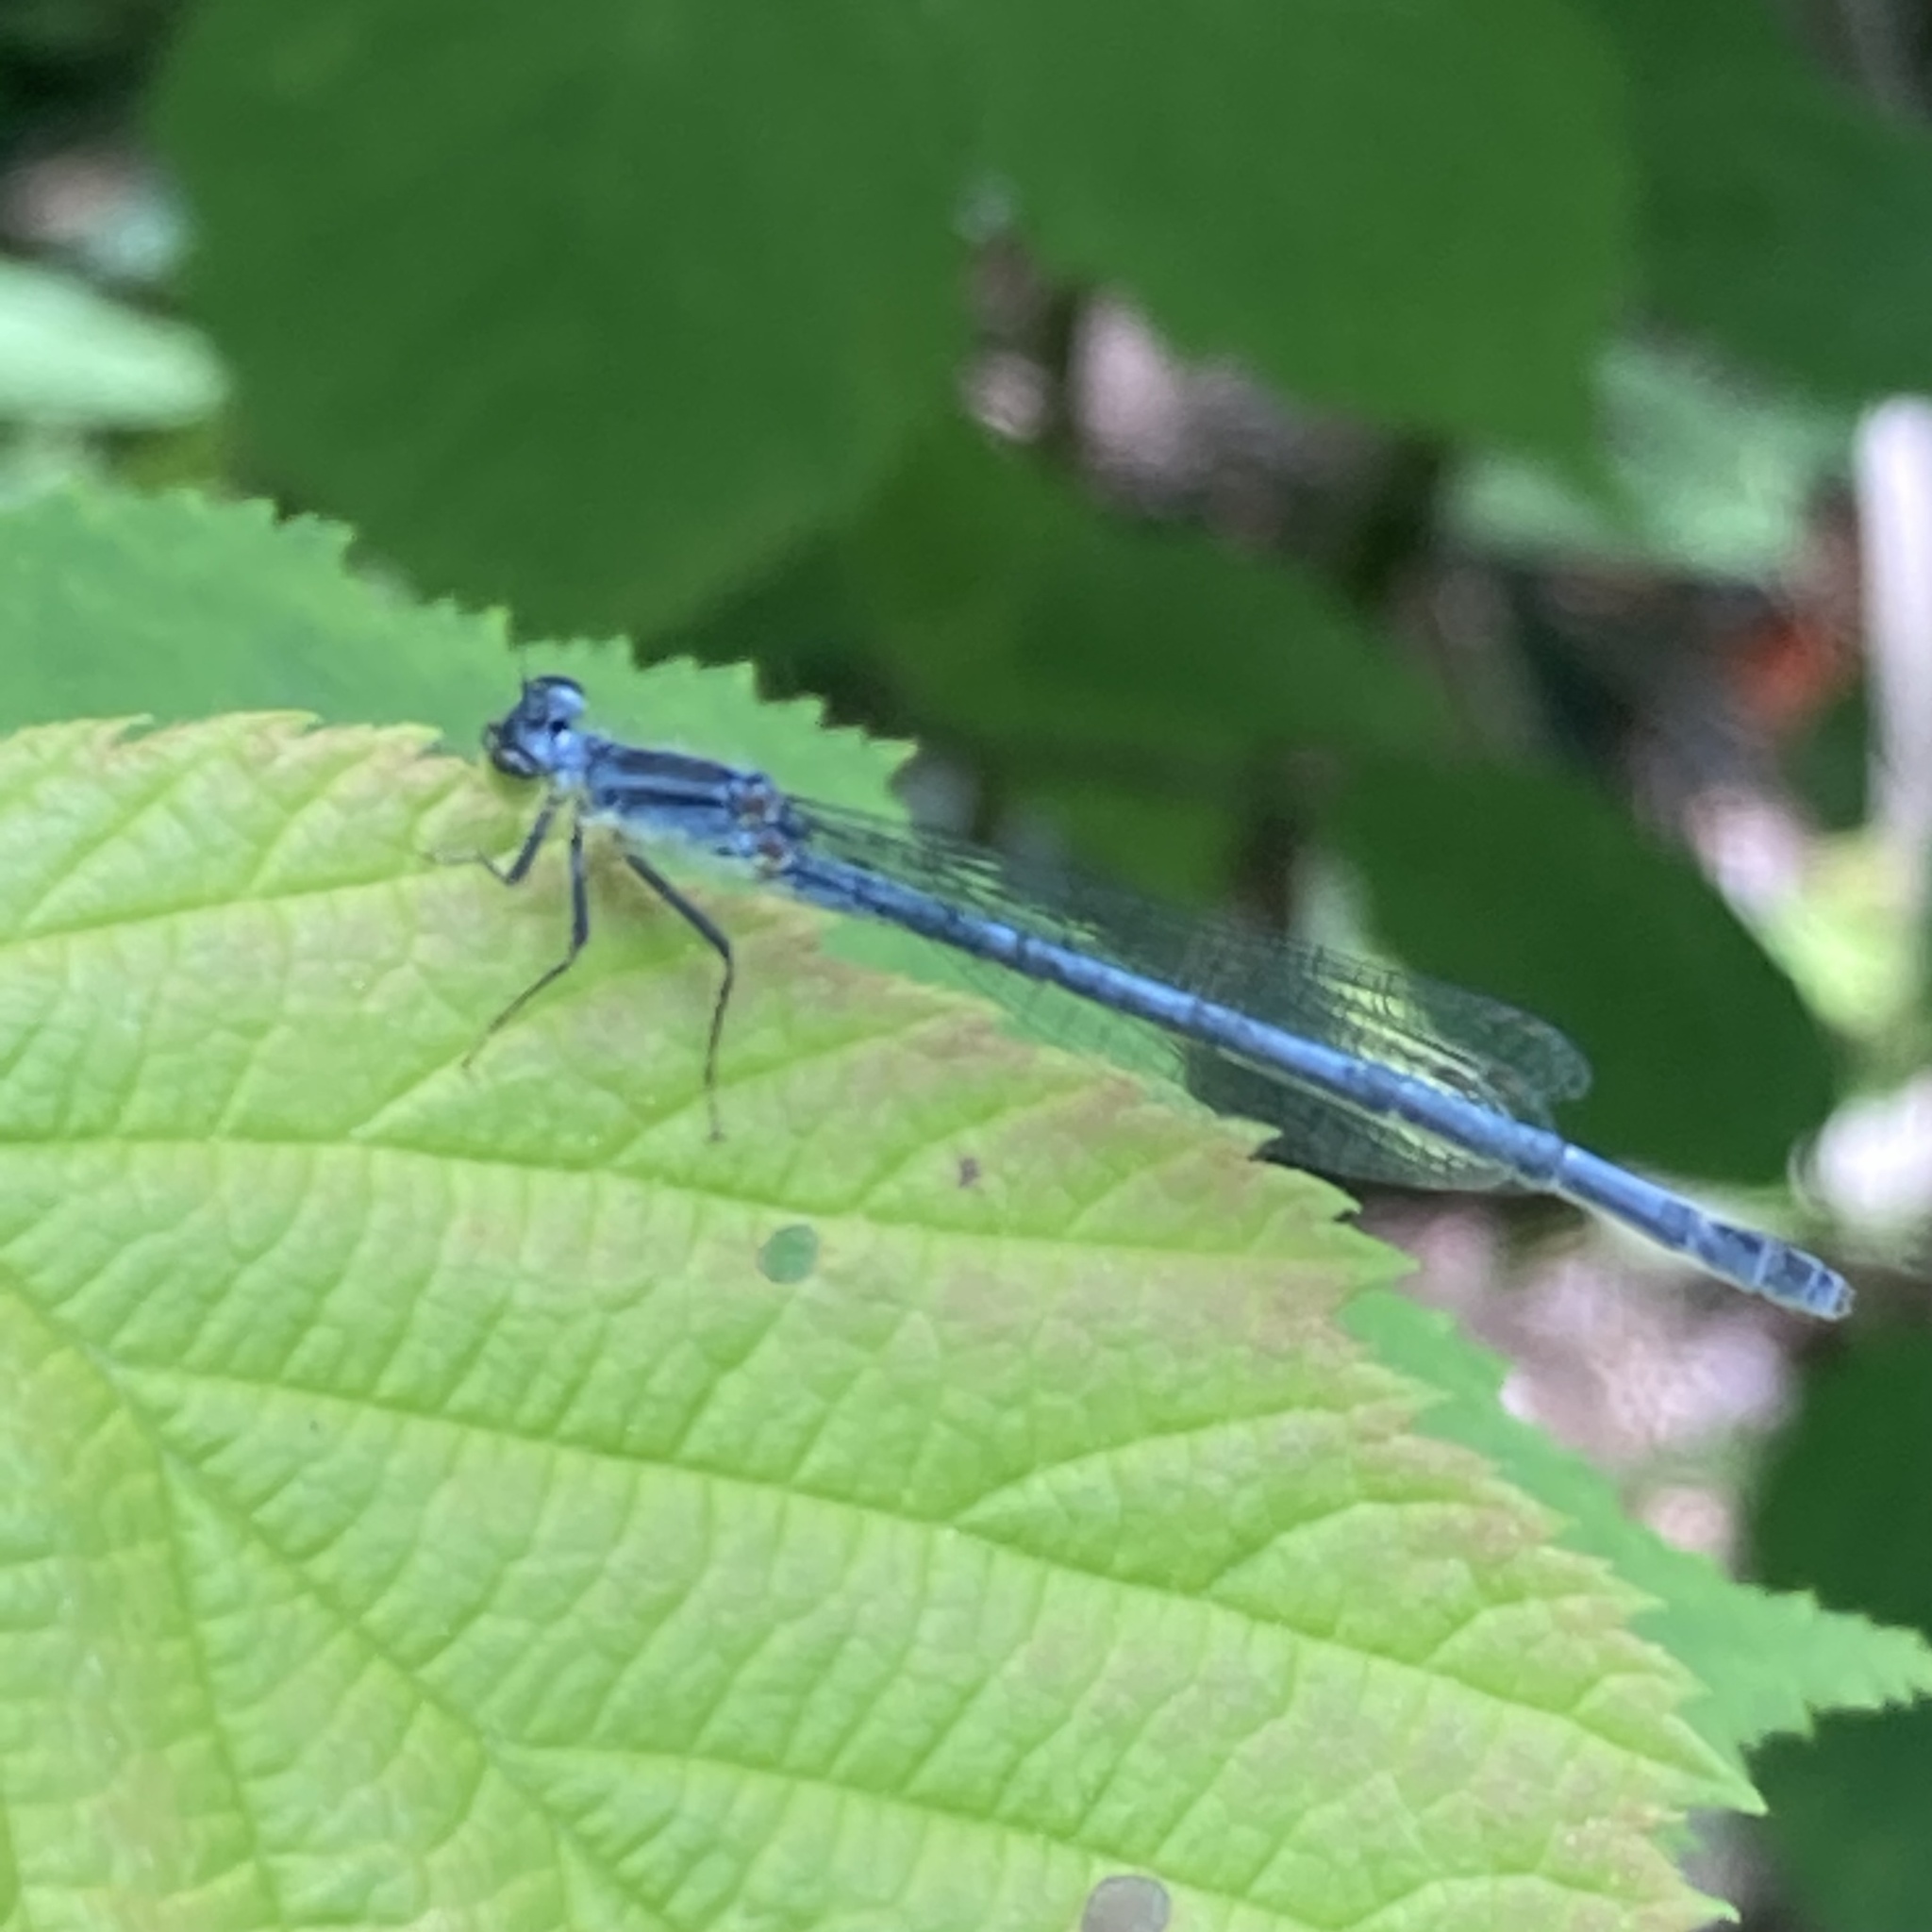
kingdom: Animalia
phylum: Arthropoda
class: Insecta
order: Odonata
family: Coenagrionidae
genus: Ischnura
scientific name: Ischnura verticalis
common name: Eastern forktail
